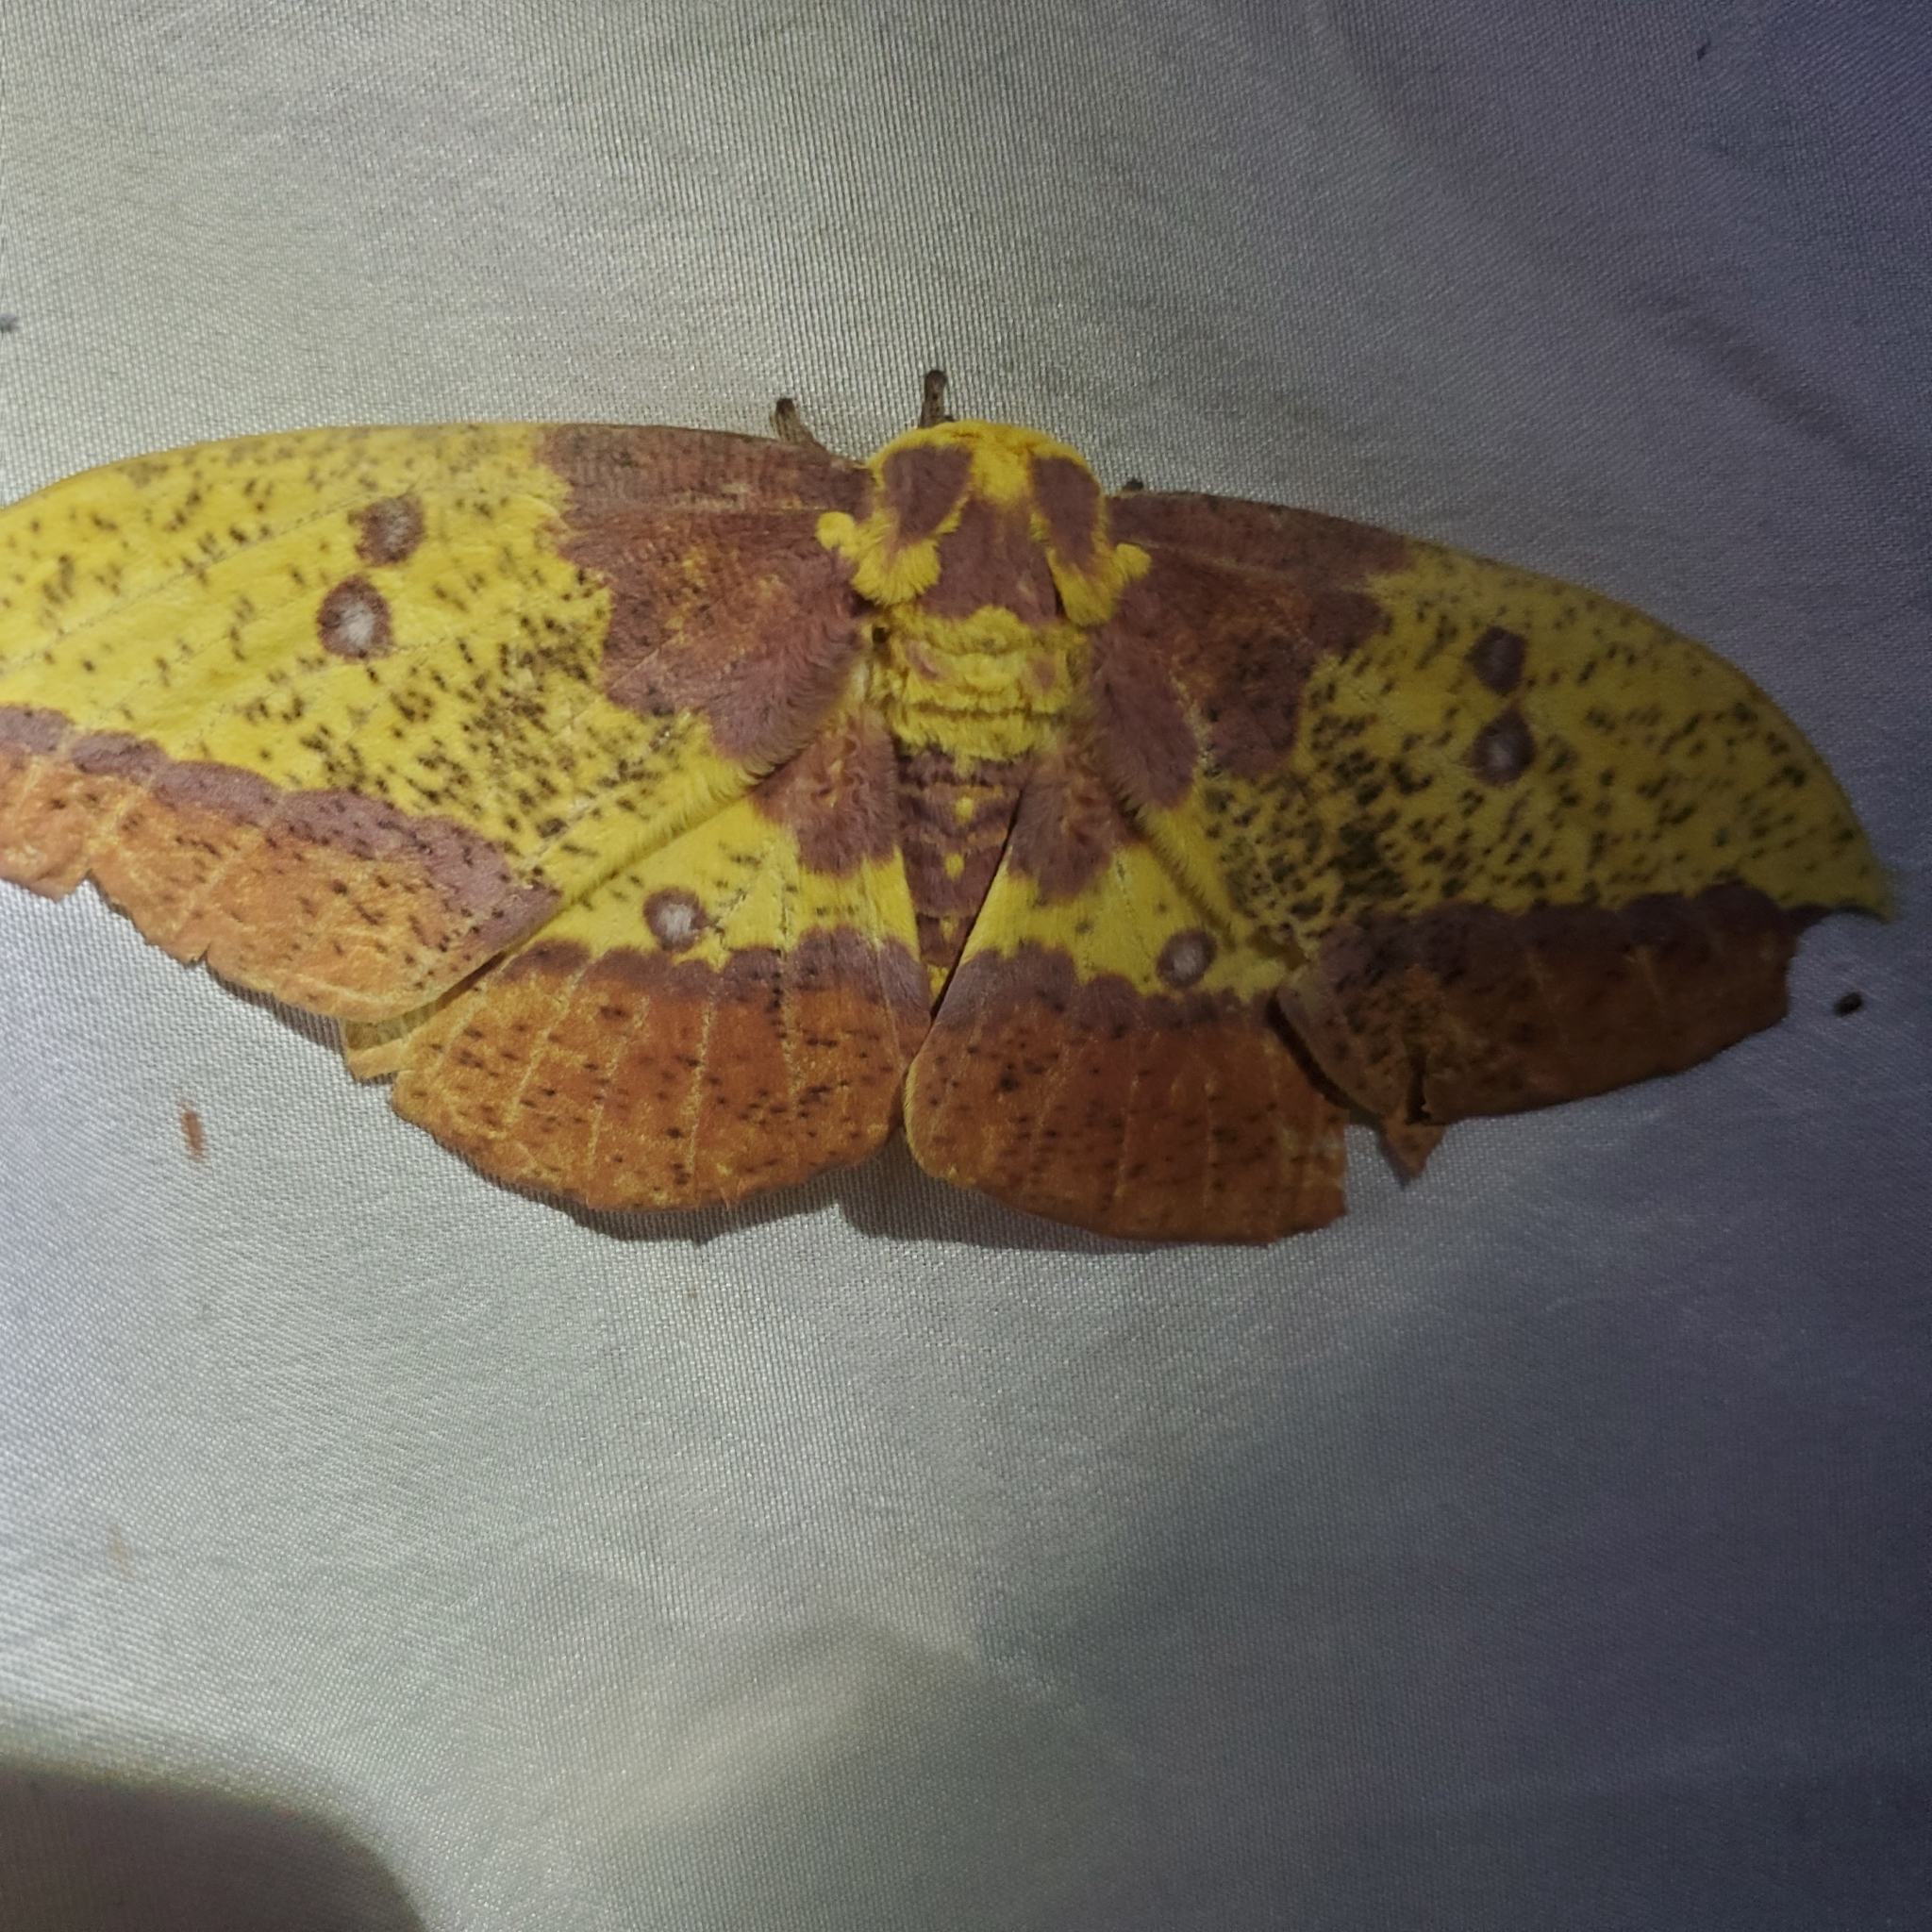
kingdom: Animalia
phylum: Arthropoda
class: Insecta
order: Lepidoptera
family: Saturniidae
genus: Eacles
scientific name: Eacles imperialis
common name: Imperial moth
